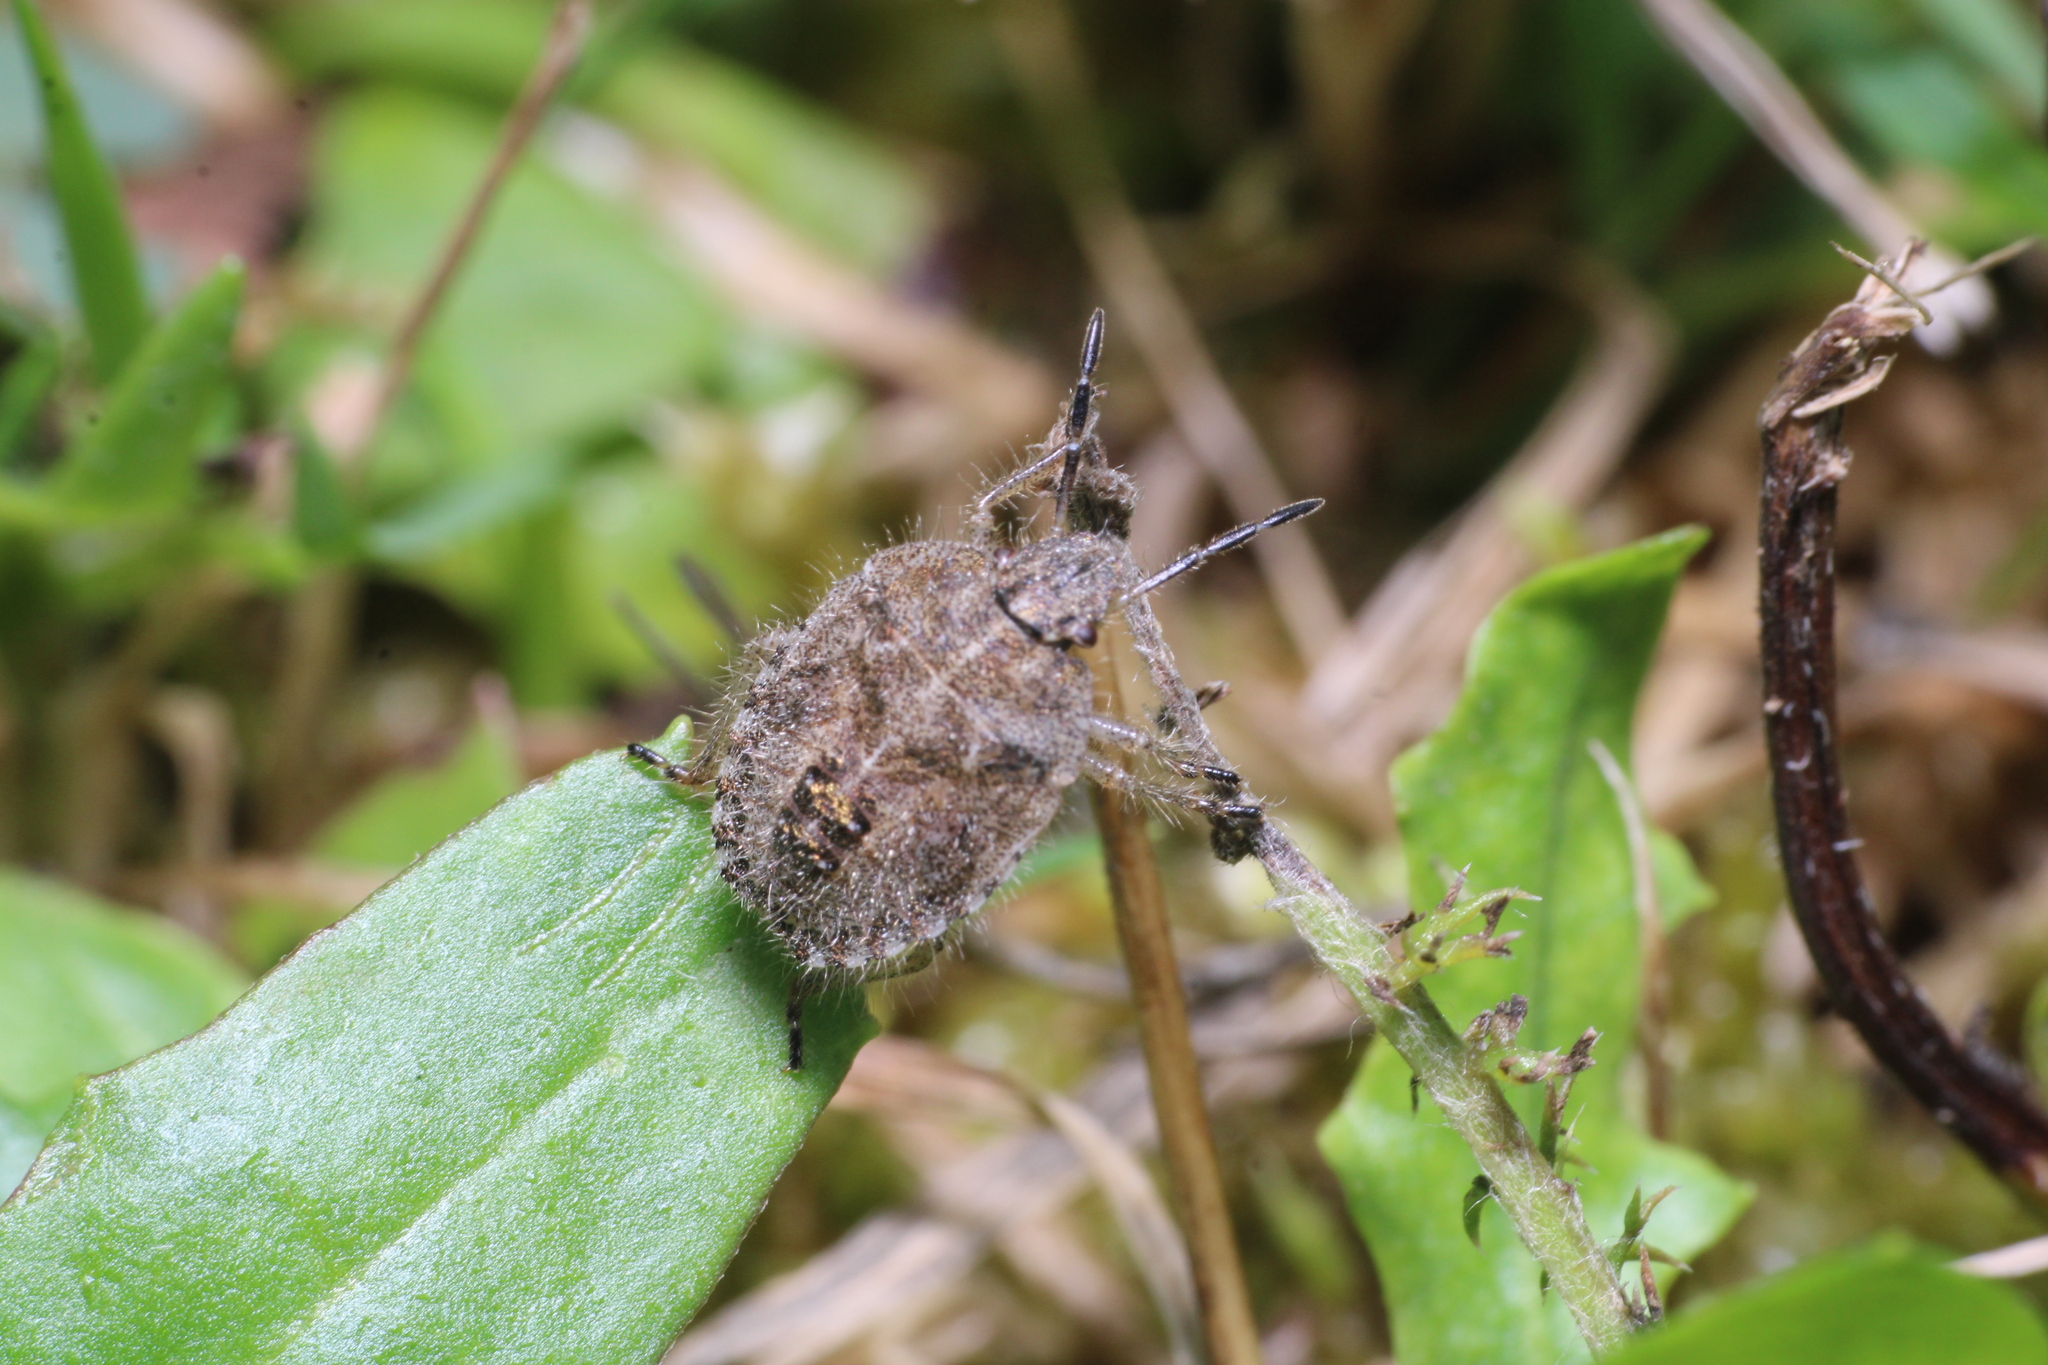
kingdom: Animalia
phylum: Arthropoda
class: Insecta
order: Hemiptera
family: Pentatomidae
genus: Dolycoris
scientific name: Dolycoris baccarum
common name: Sloe bug
